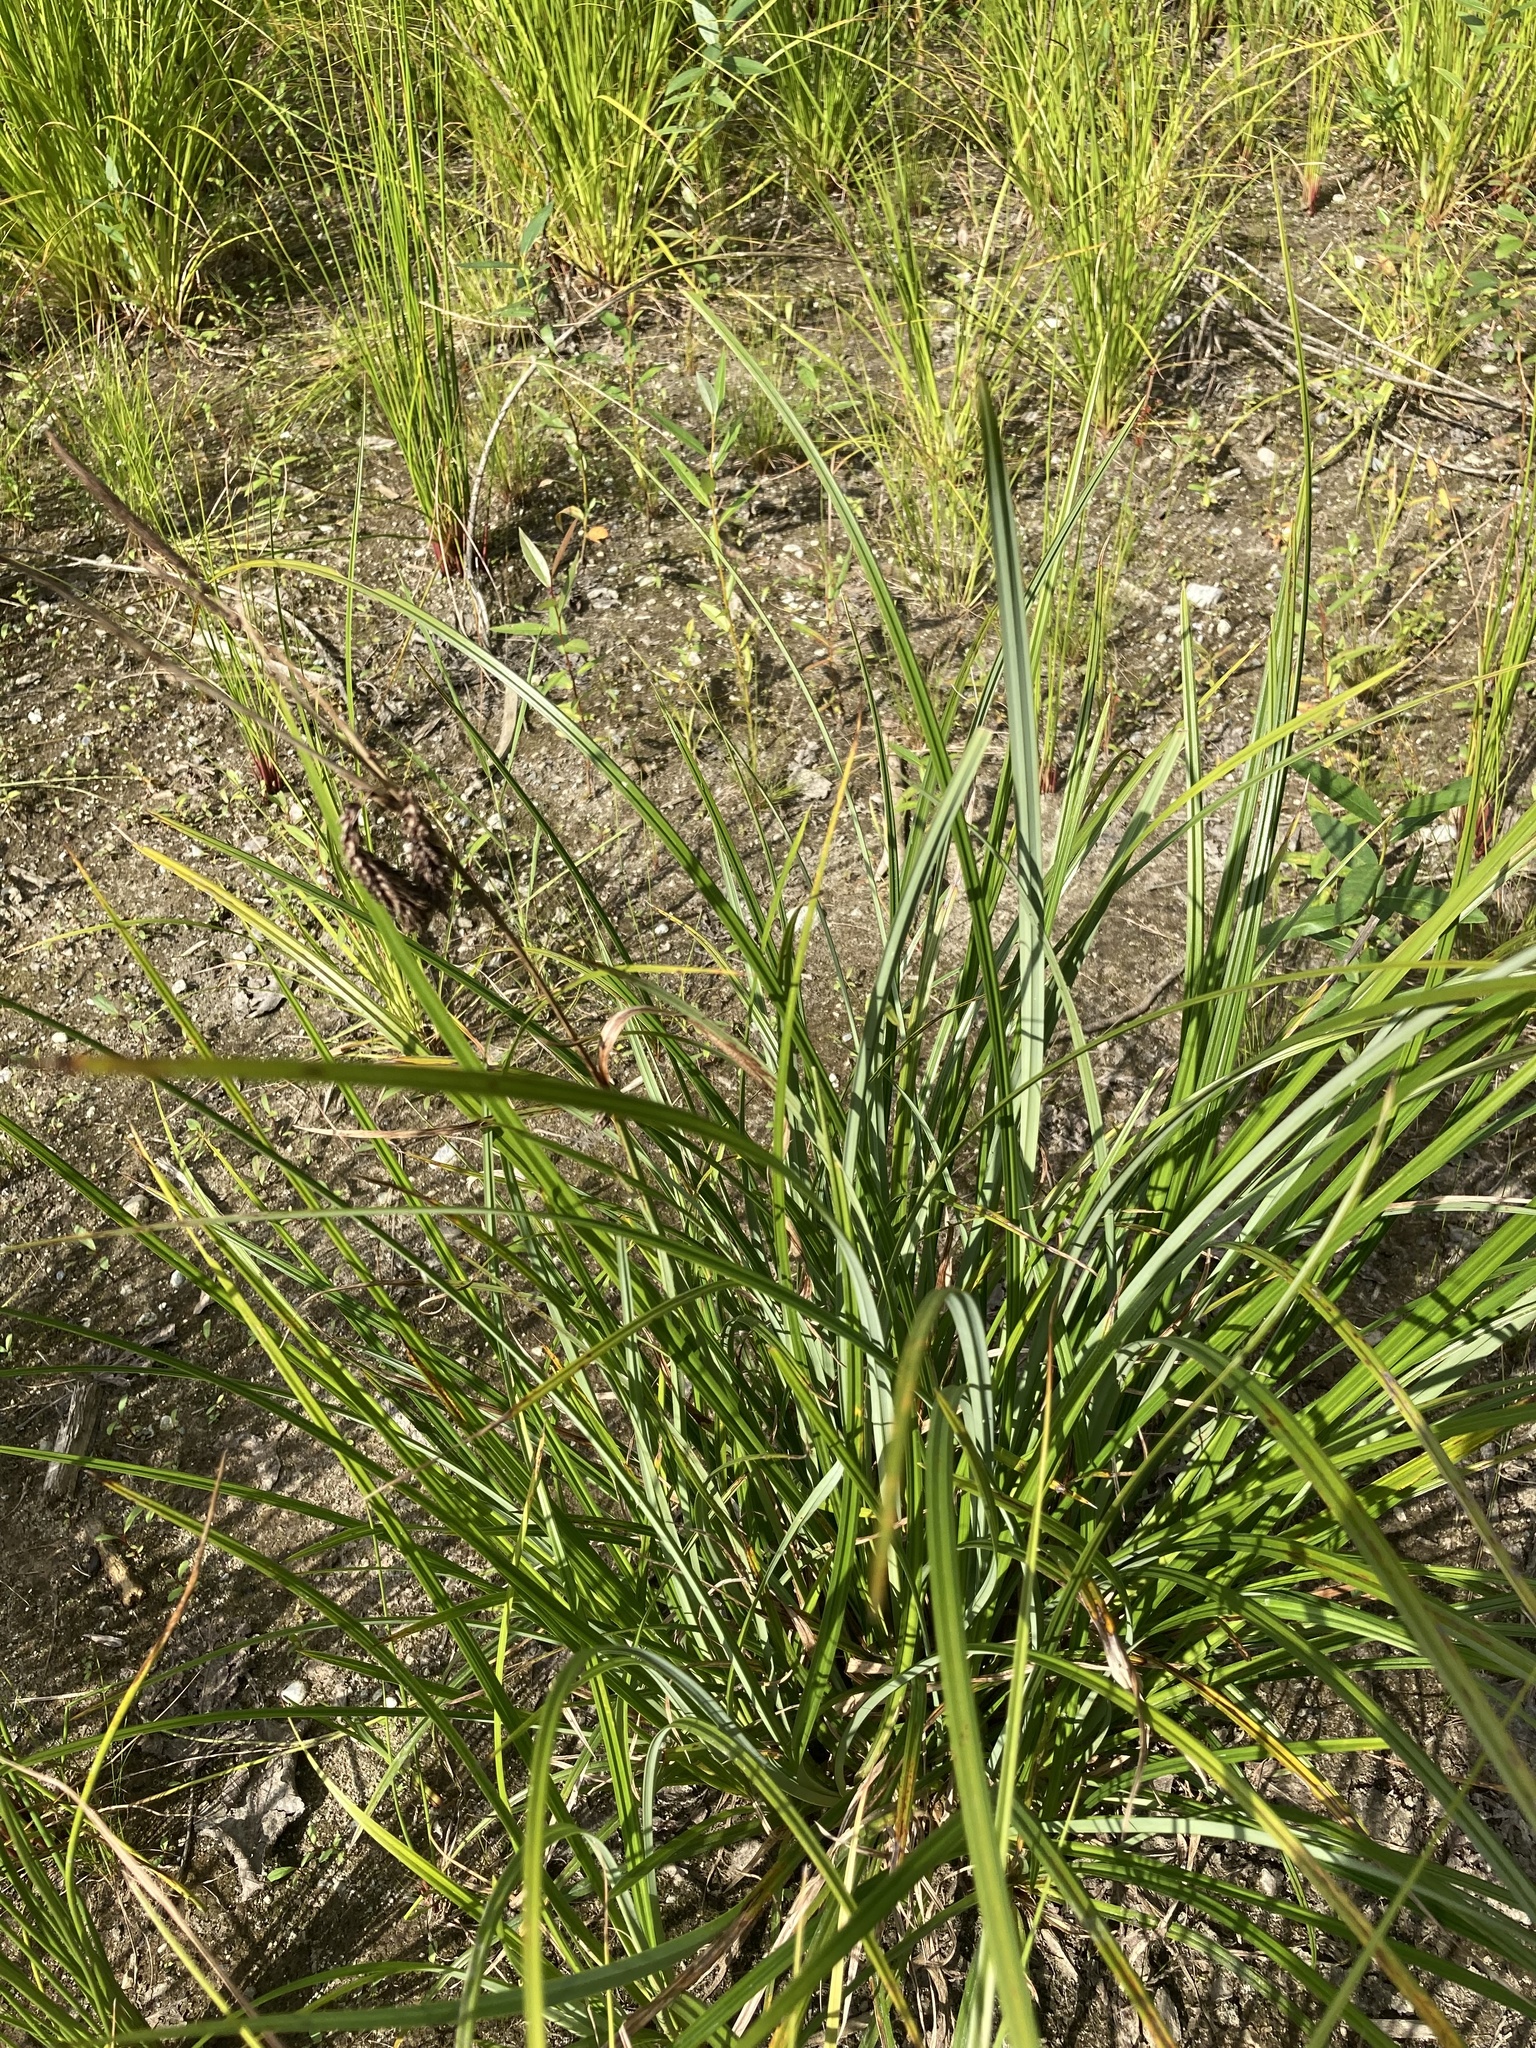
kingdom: Plantae
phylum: Tracheophyta
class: Liliopsida
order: Poales
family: Cyperaceae
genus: Carex
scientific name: Carex obnupta
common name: Slough sedge
